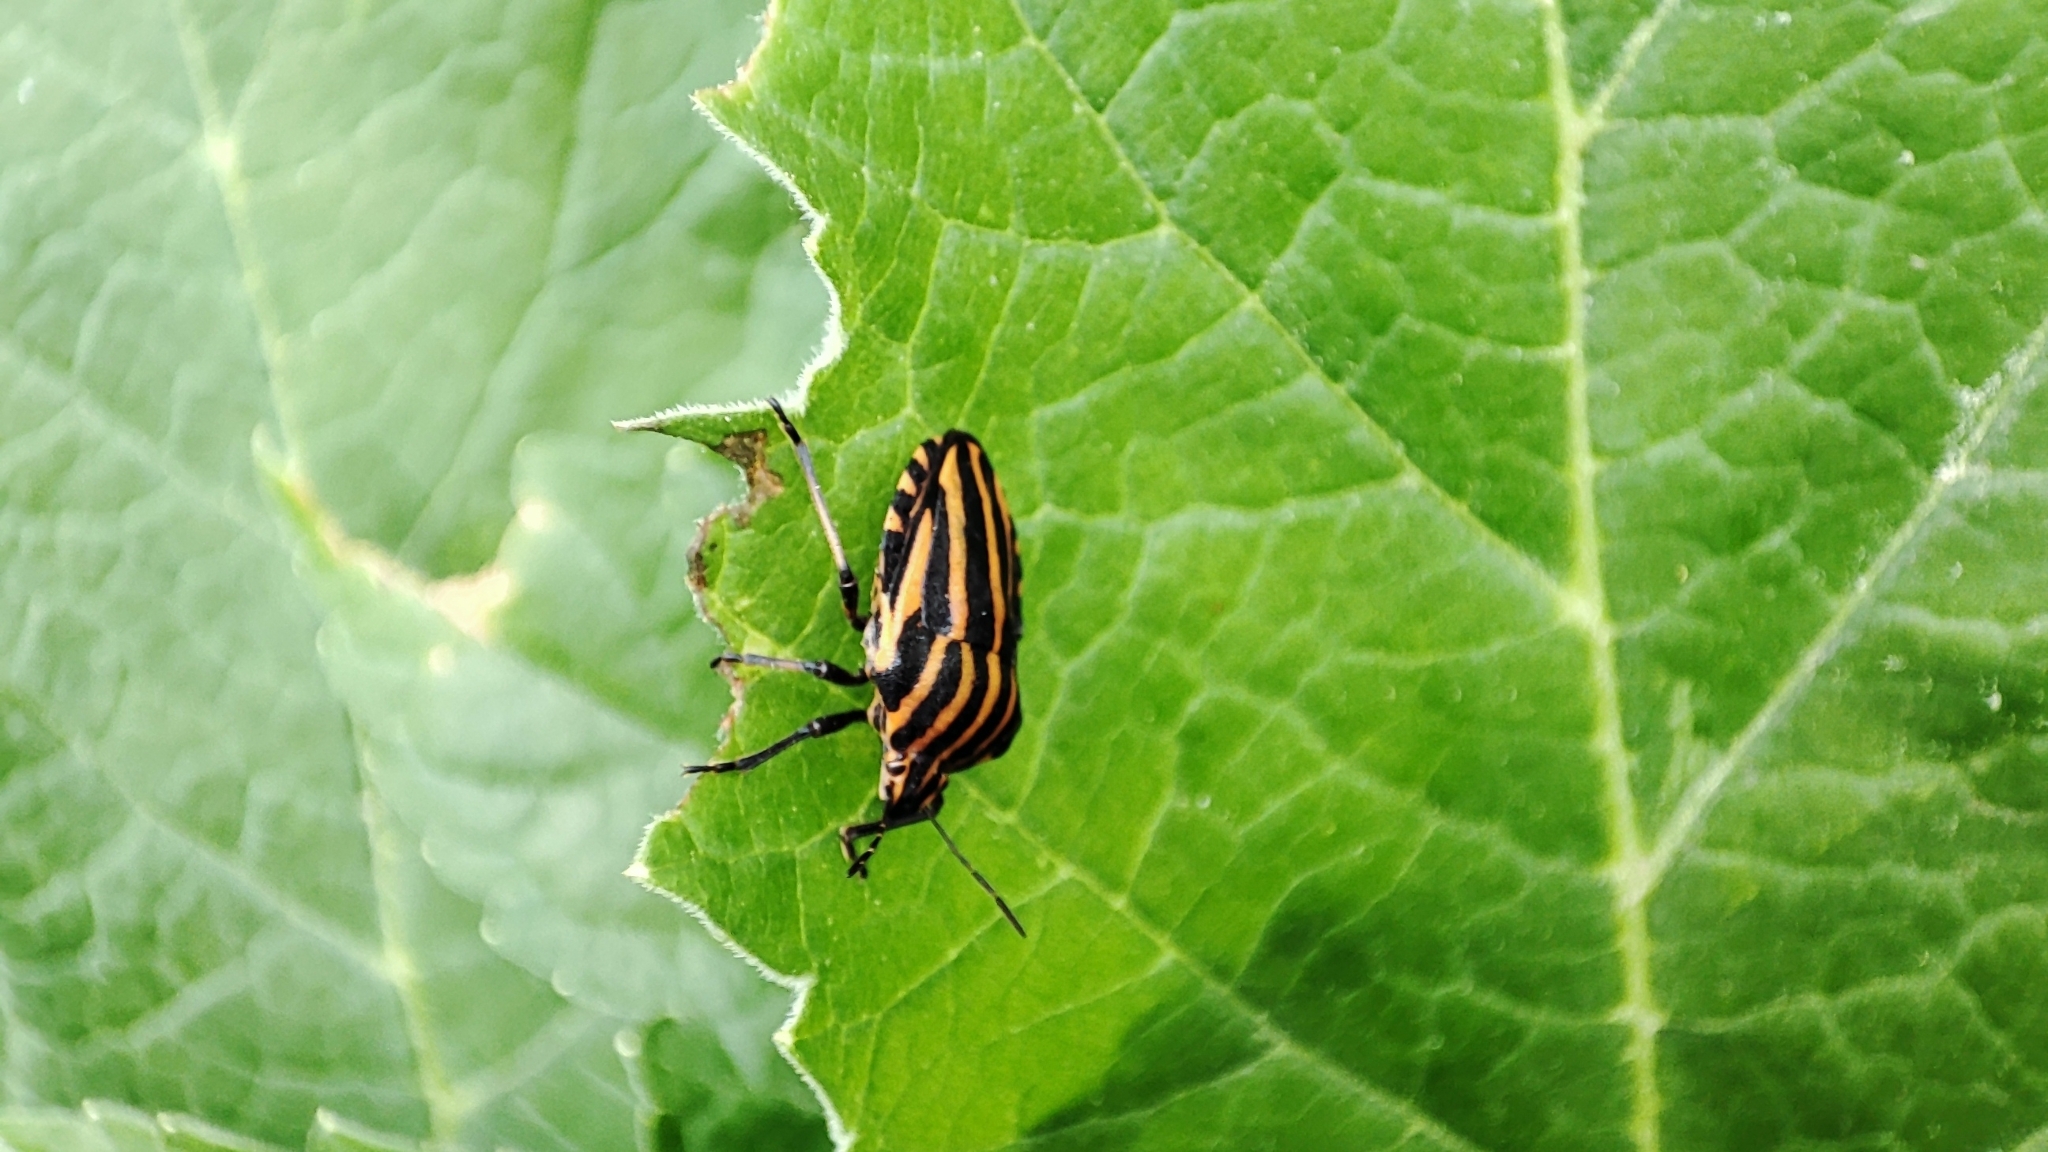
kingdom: Animalia
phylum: Arthropoda
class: Insecta
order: Hemiptera
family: Pentatomidae
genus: Graphosoma
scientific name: Graphosoma italicum
